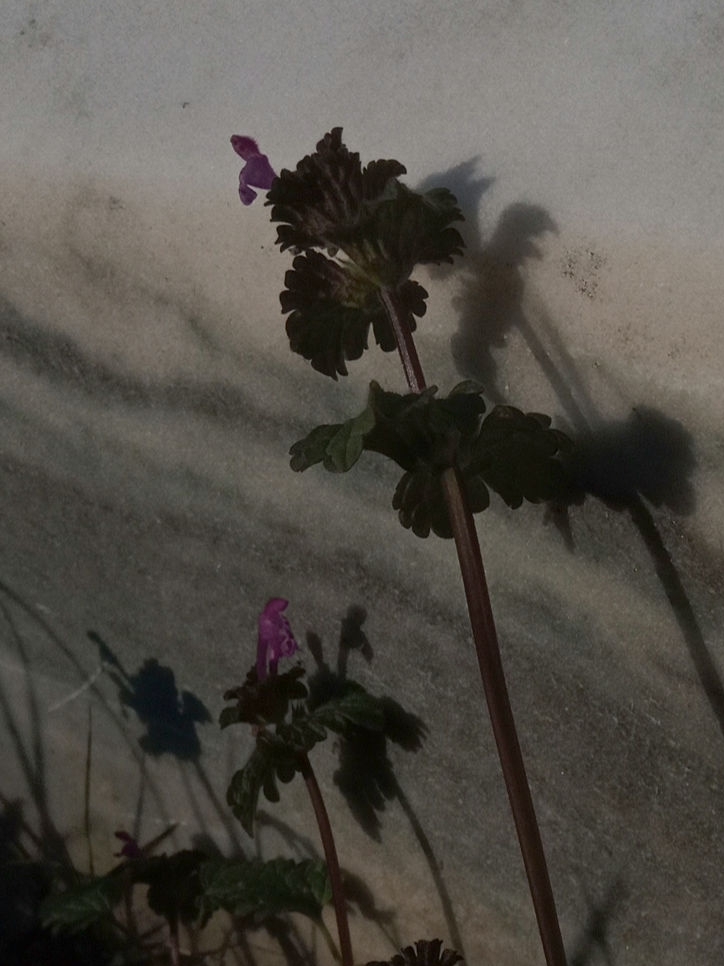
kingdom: Plantae
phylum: Tracheophyta
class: Magnoliopsida
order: Lamiales
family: Lamiaceae
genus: Lamium
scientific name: Lamium amplexicaule
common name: Henbit dead-nettle
